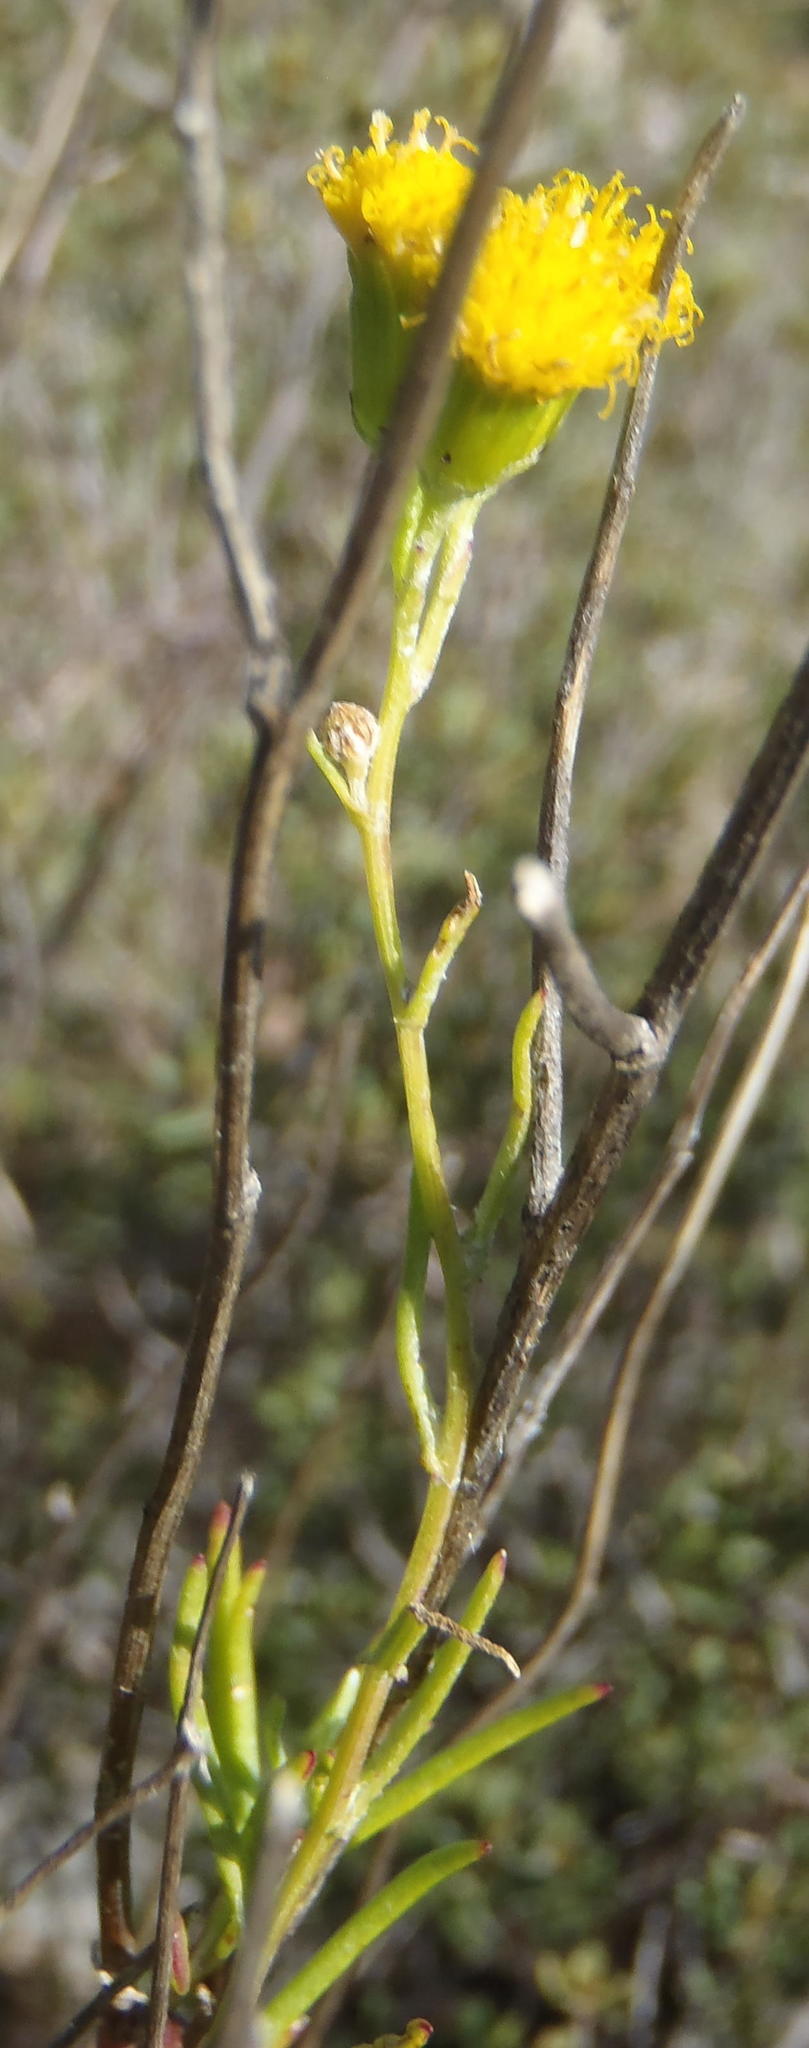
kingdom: Plantae
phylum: Tracheophyta
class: Magnoliopsida
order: Asterales
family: Asteraceae
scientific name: Asteraceae
